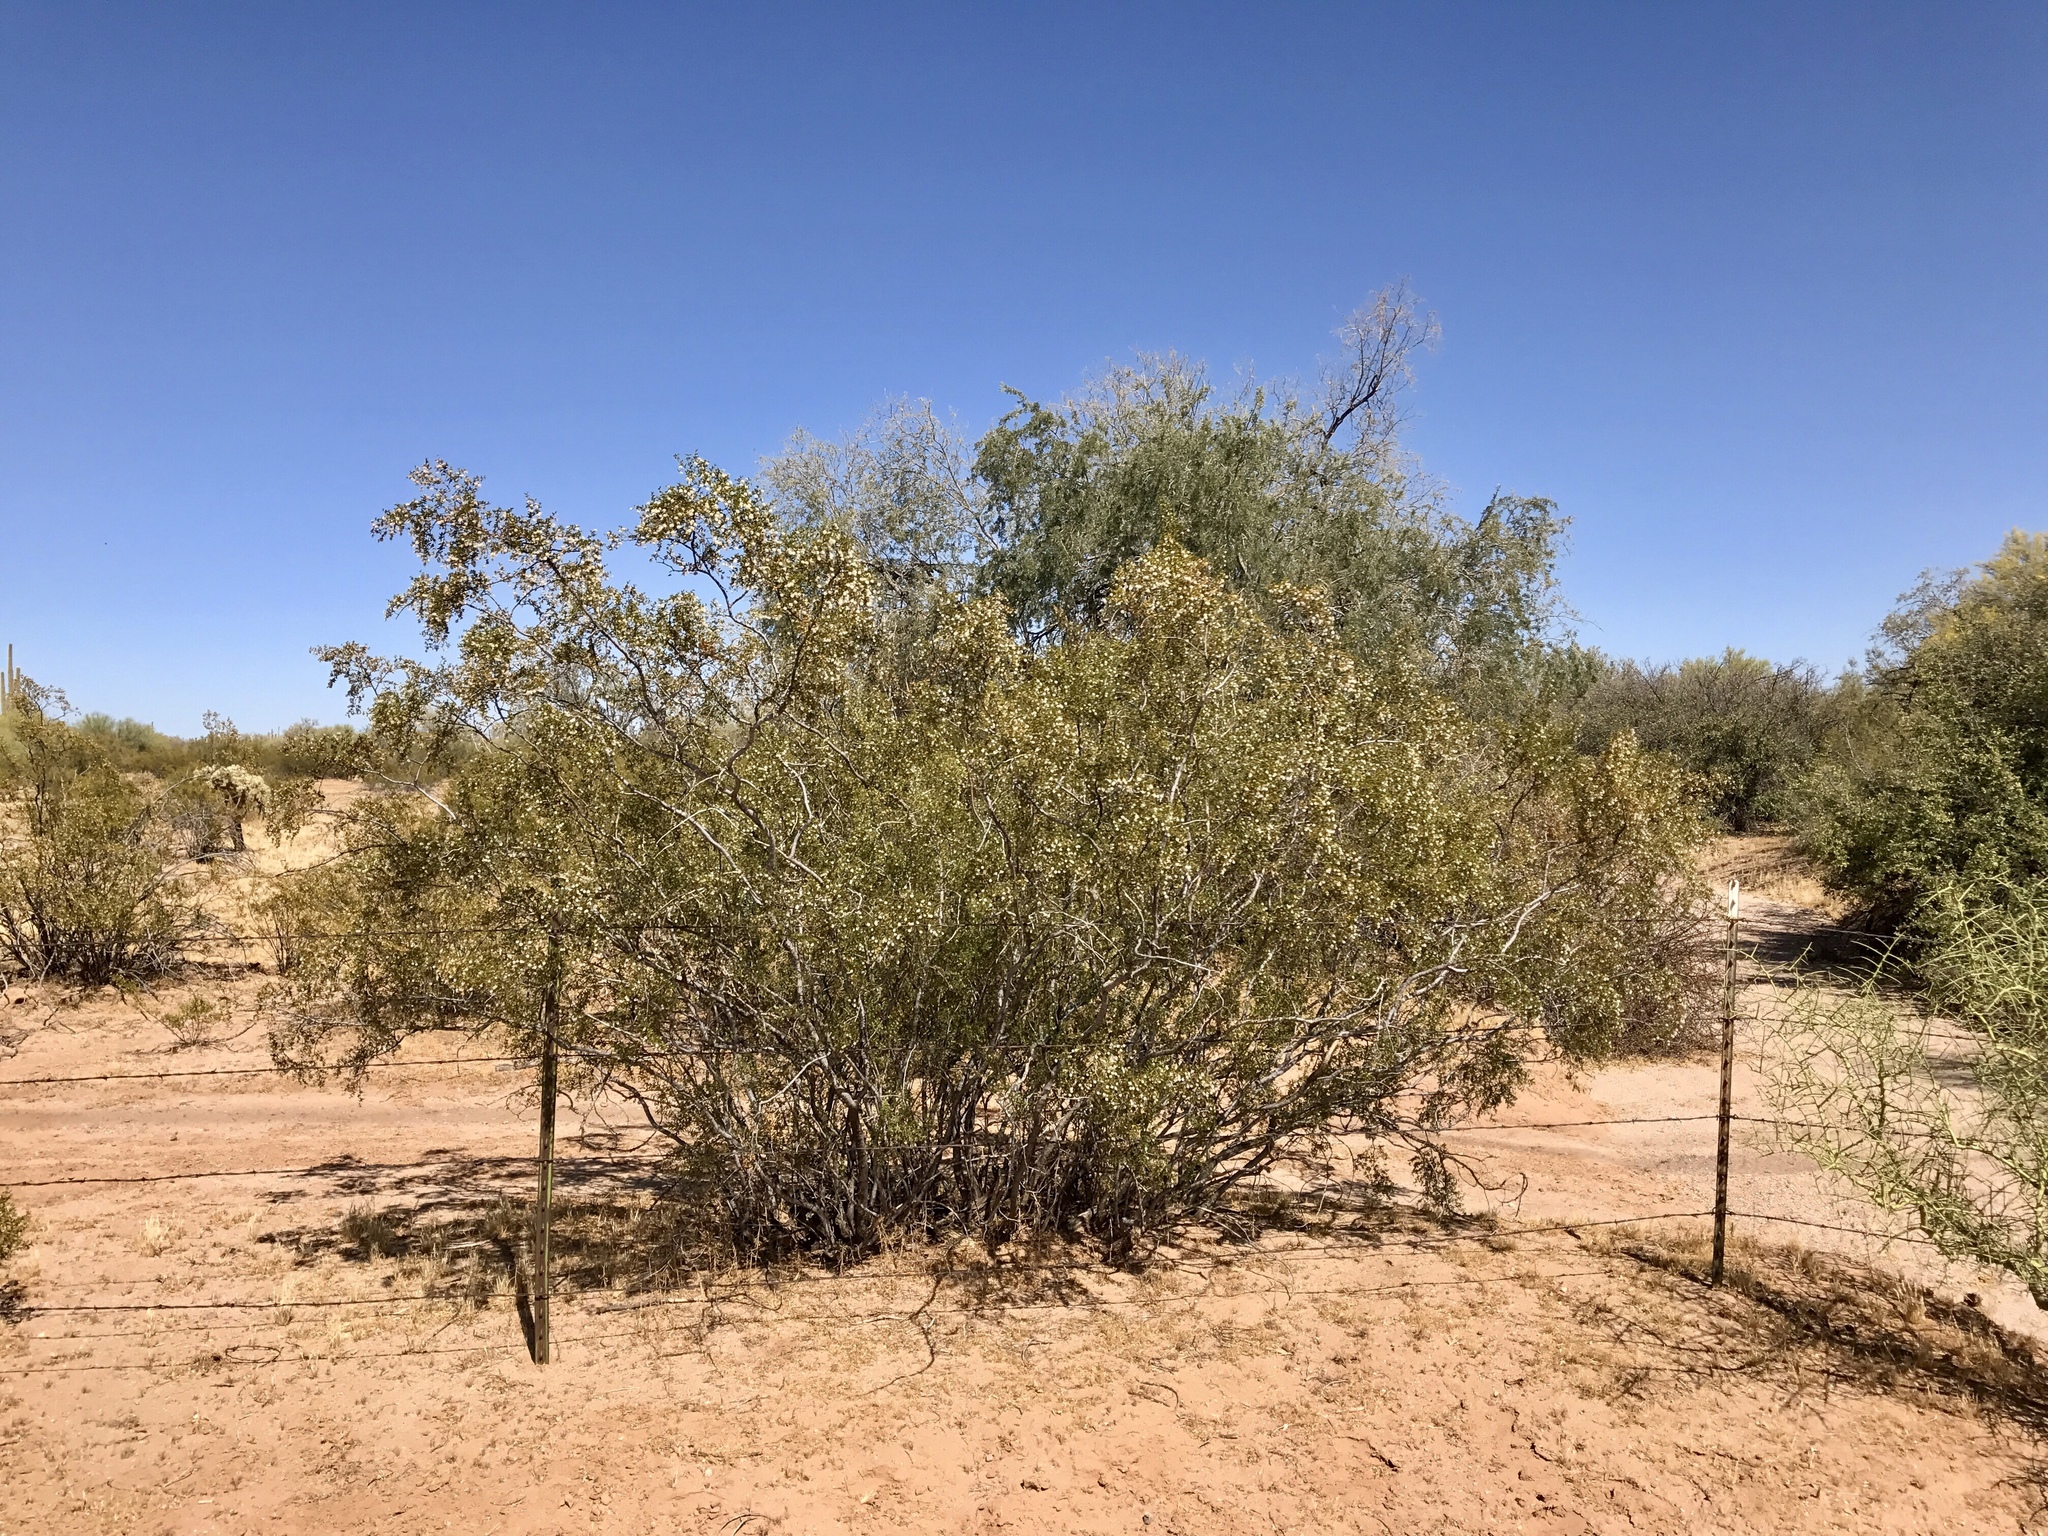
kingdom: Plantae
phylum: Tracheophyta
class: Magnoliopsida
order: Zygophyllales
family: Zygophyllaceae
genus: Larrea
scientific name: Larrea tridentata
